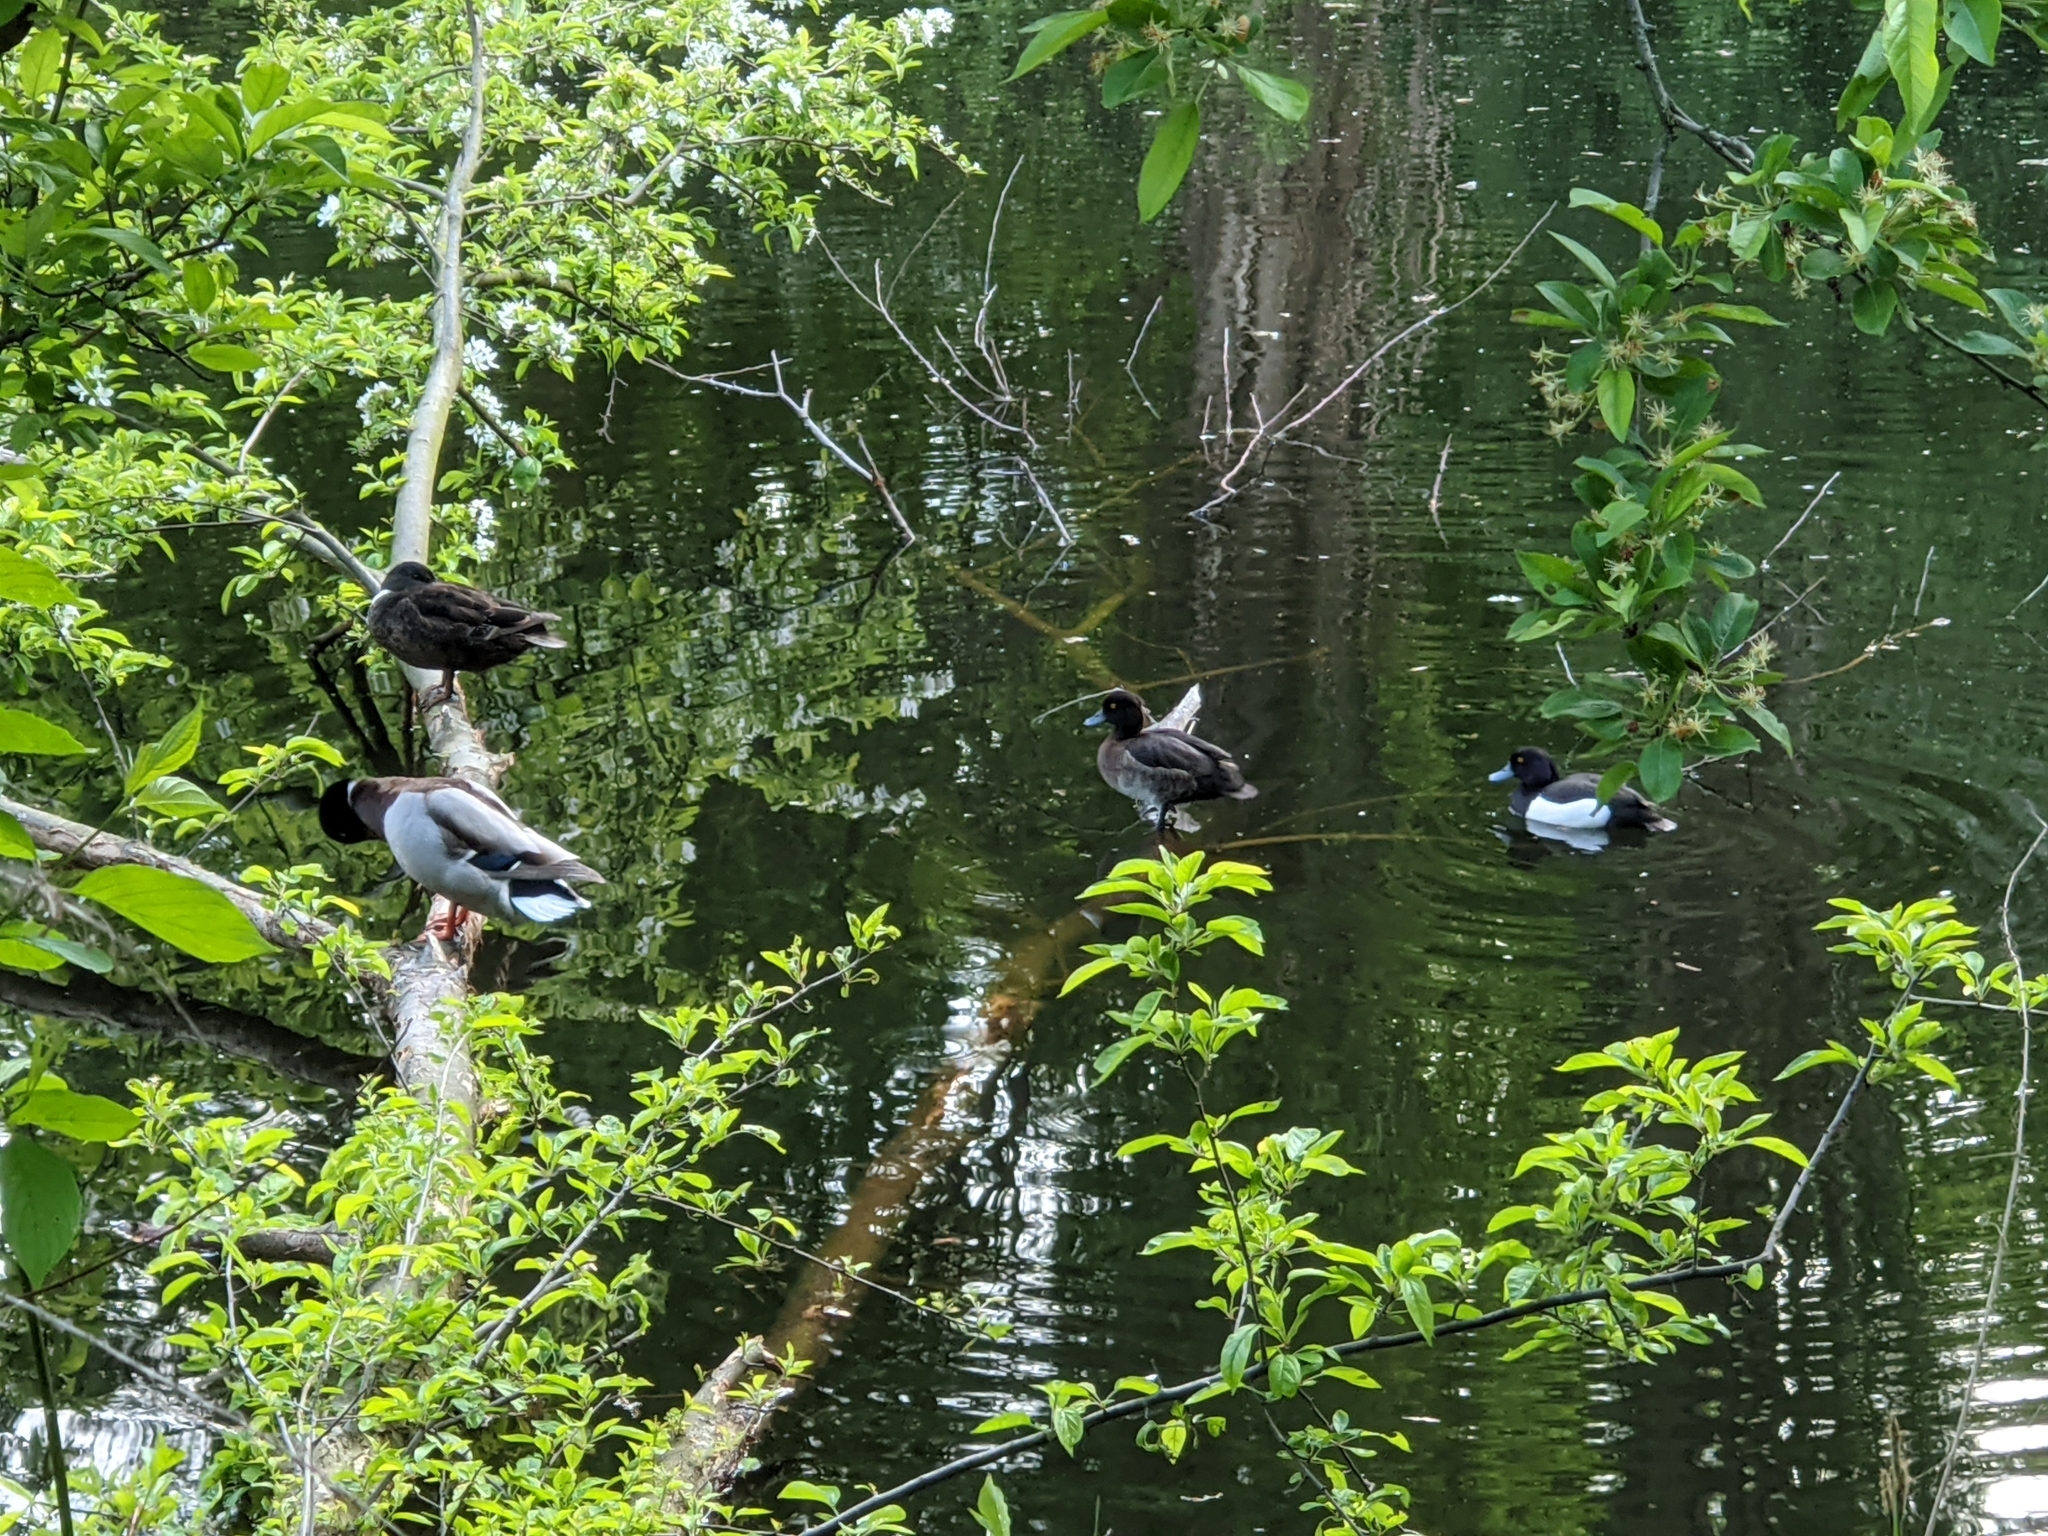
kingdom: Animalia
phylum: Chordata
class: Aves
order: Anseriformes
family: Anatidae
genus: Aythya
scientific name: Aythya fuligula
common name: Tufted duck
